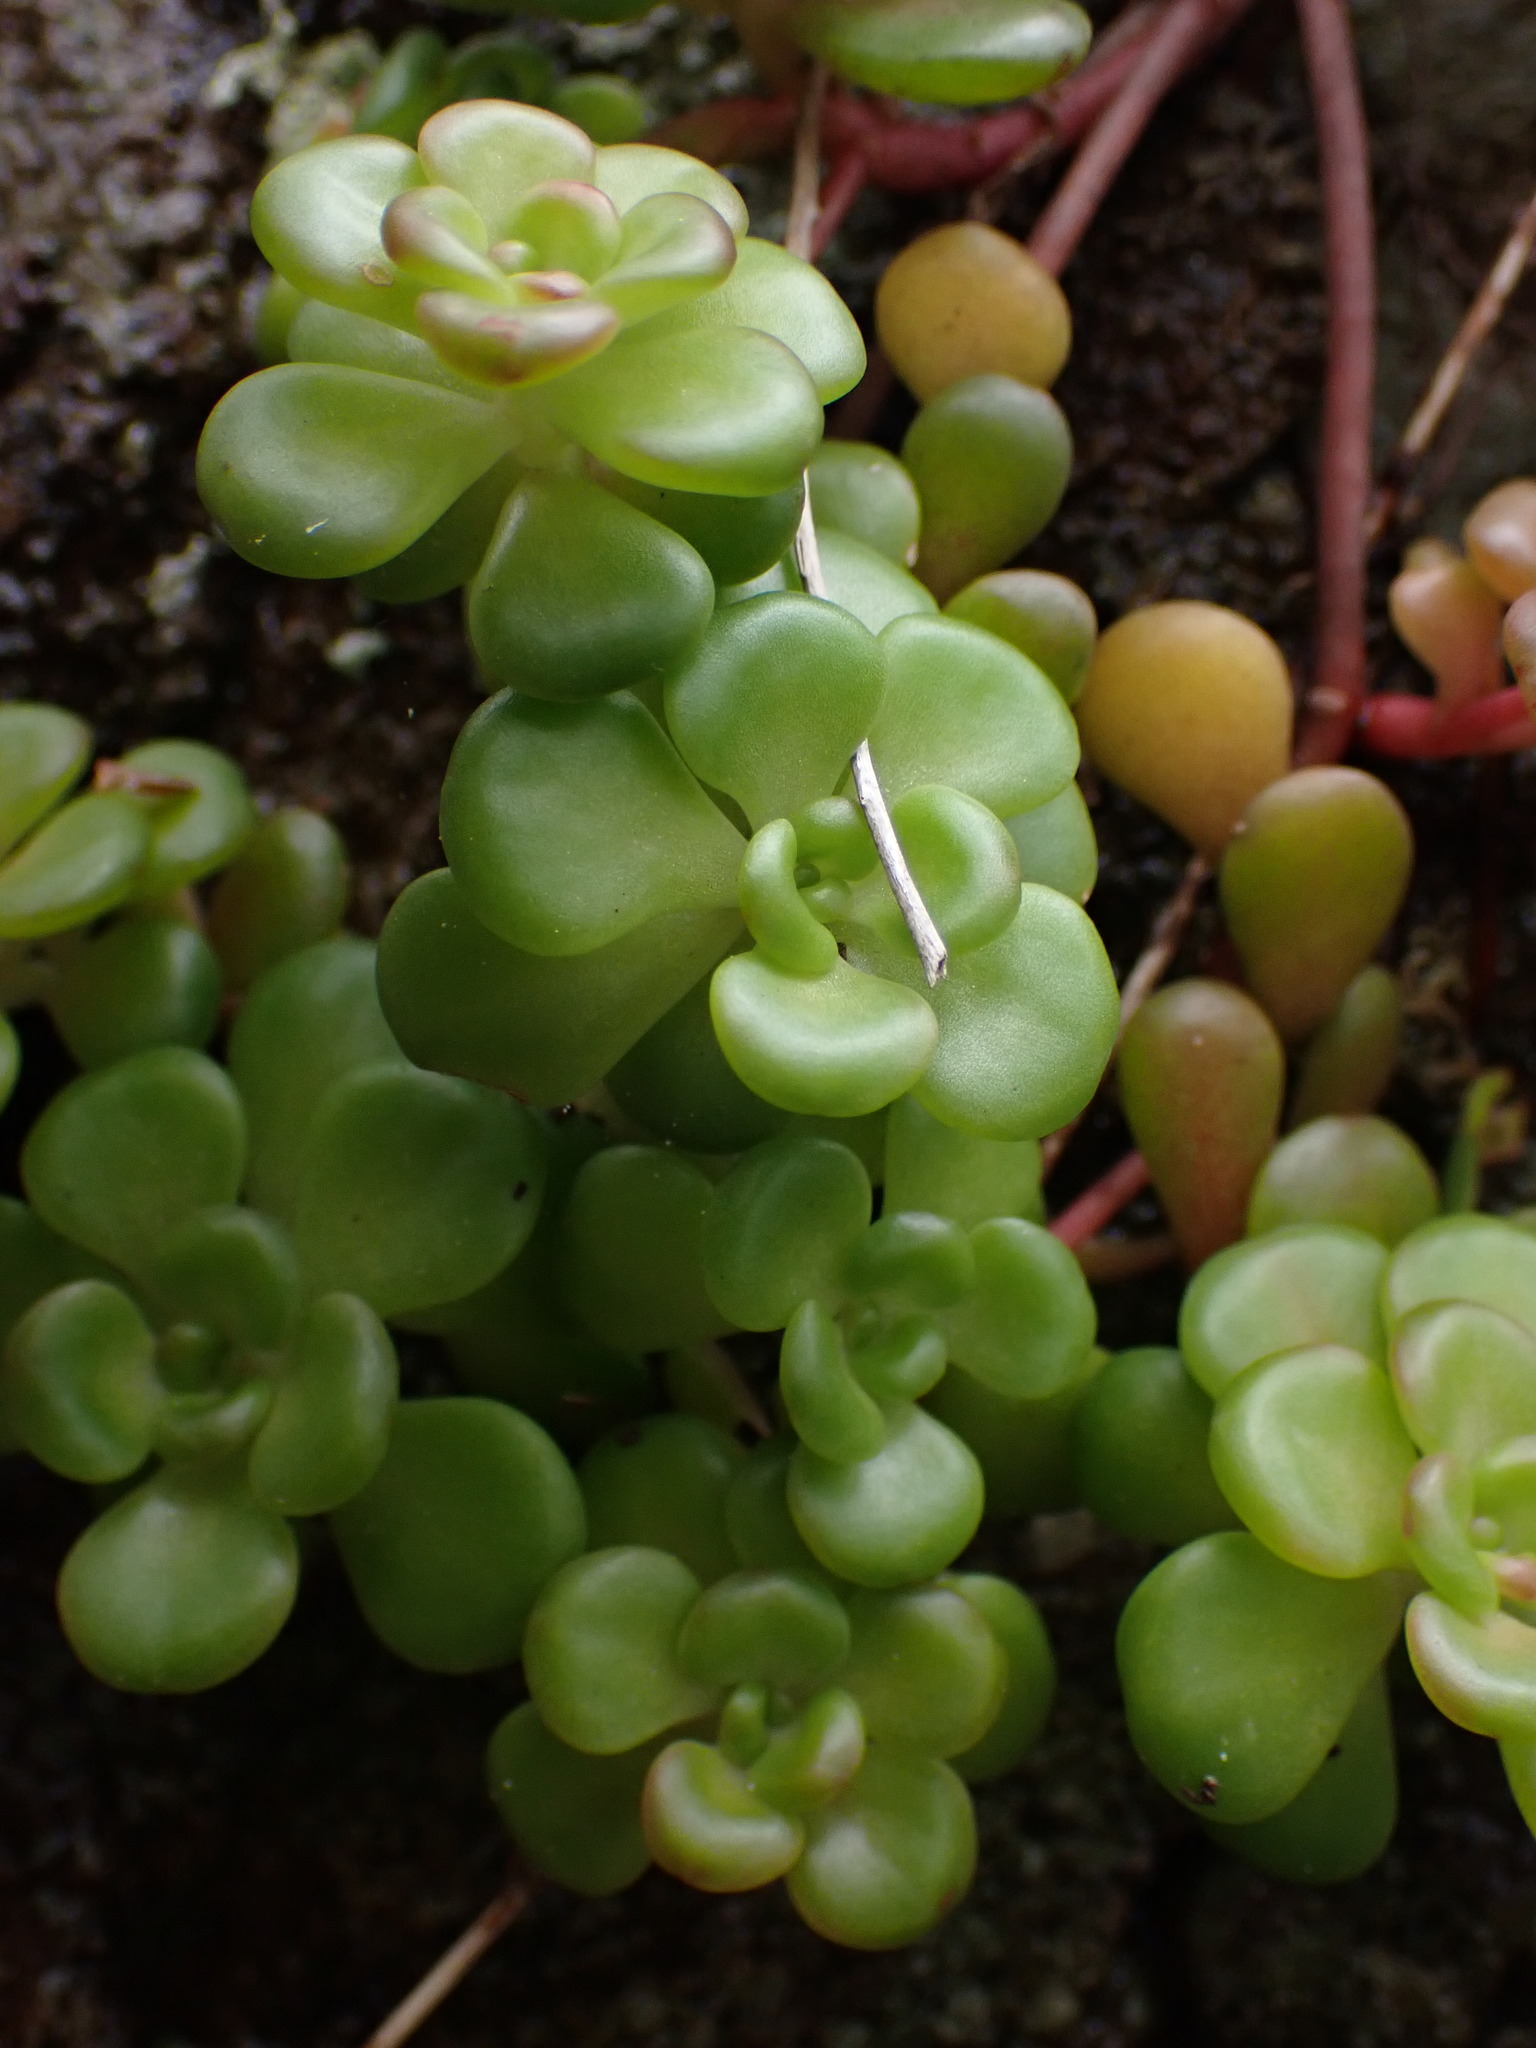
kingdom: Plantae
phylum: Tracheophyta
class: Magnoliopsida
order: Saxifragales
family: Crassulaceae
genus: Sedum
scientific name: Sedum oreganum
